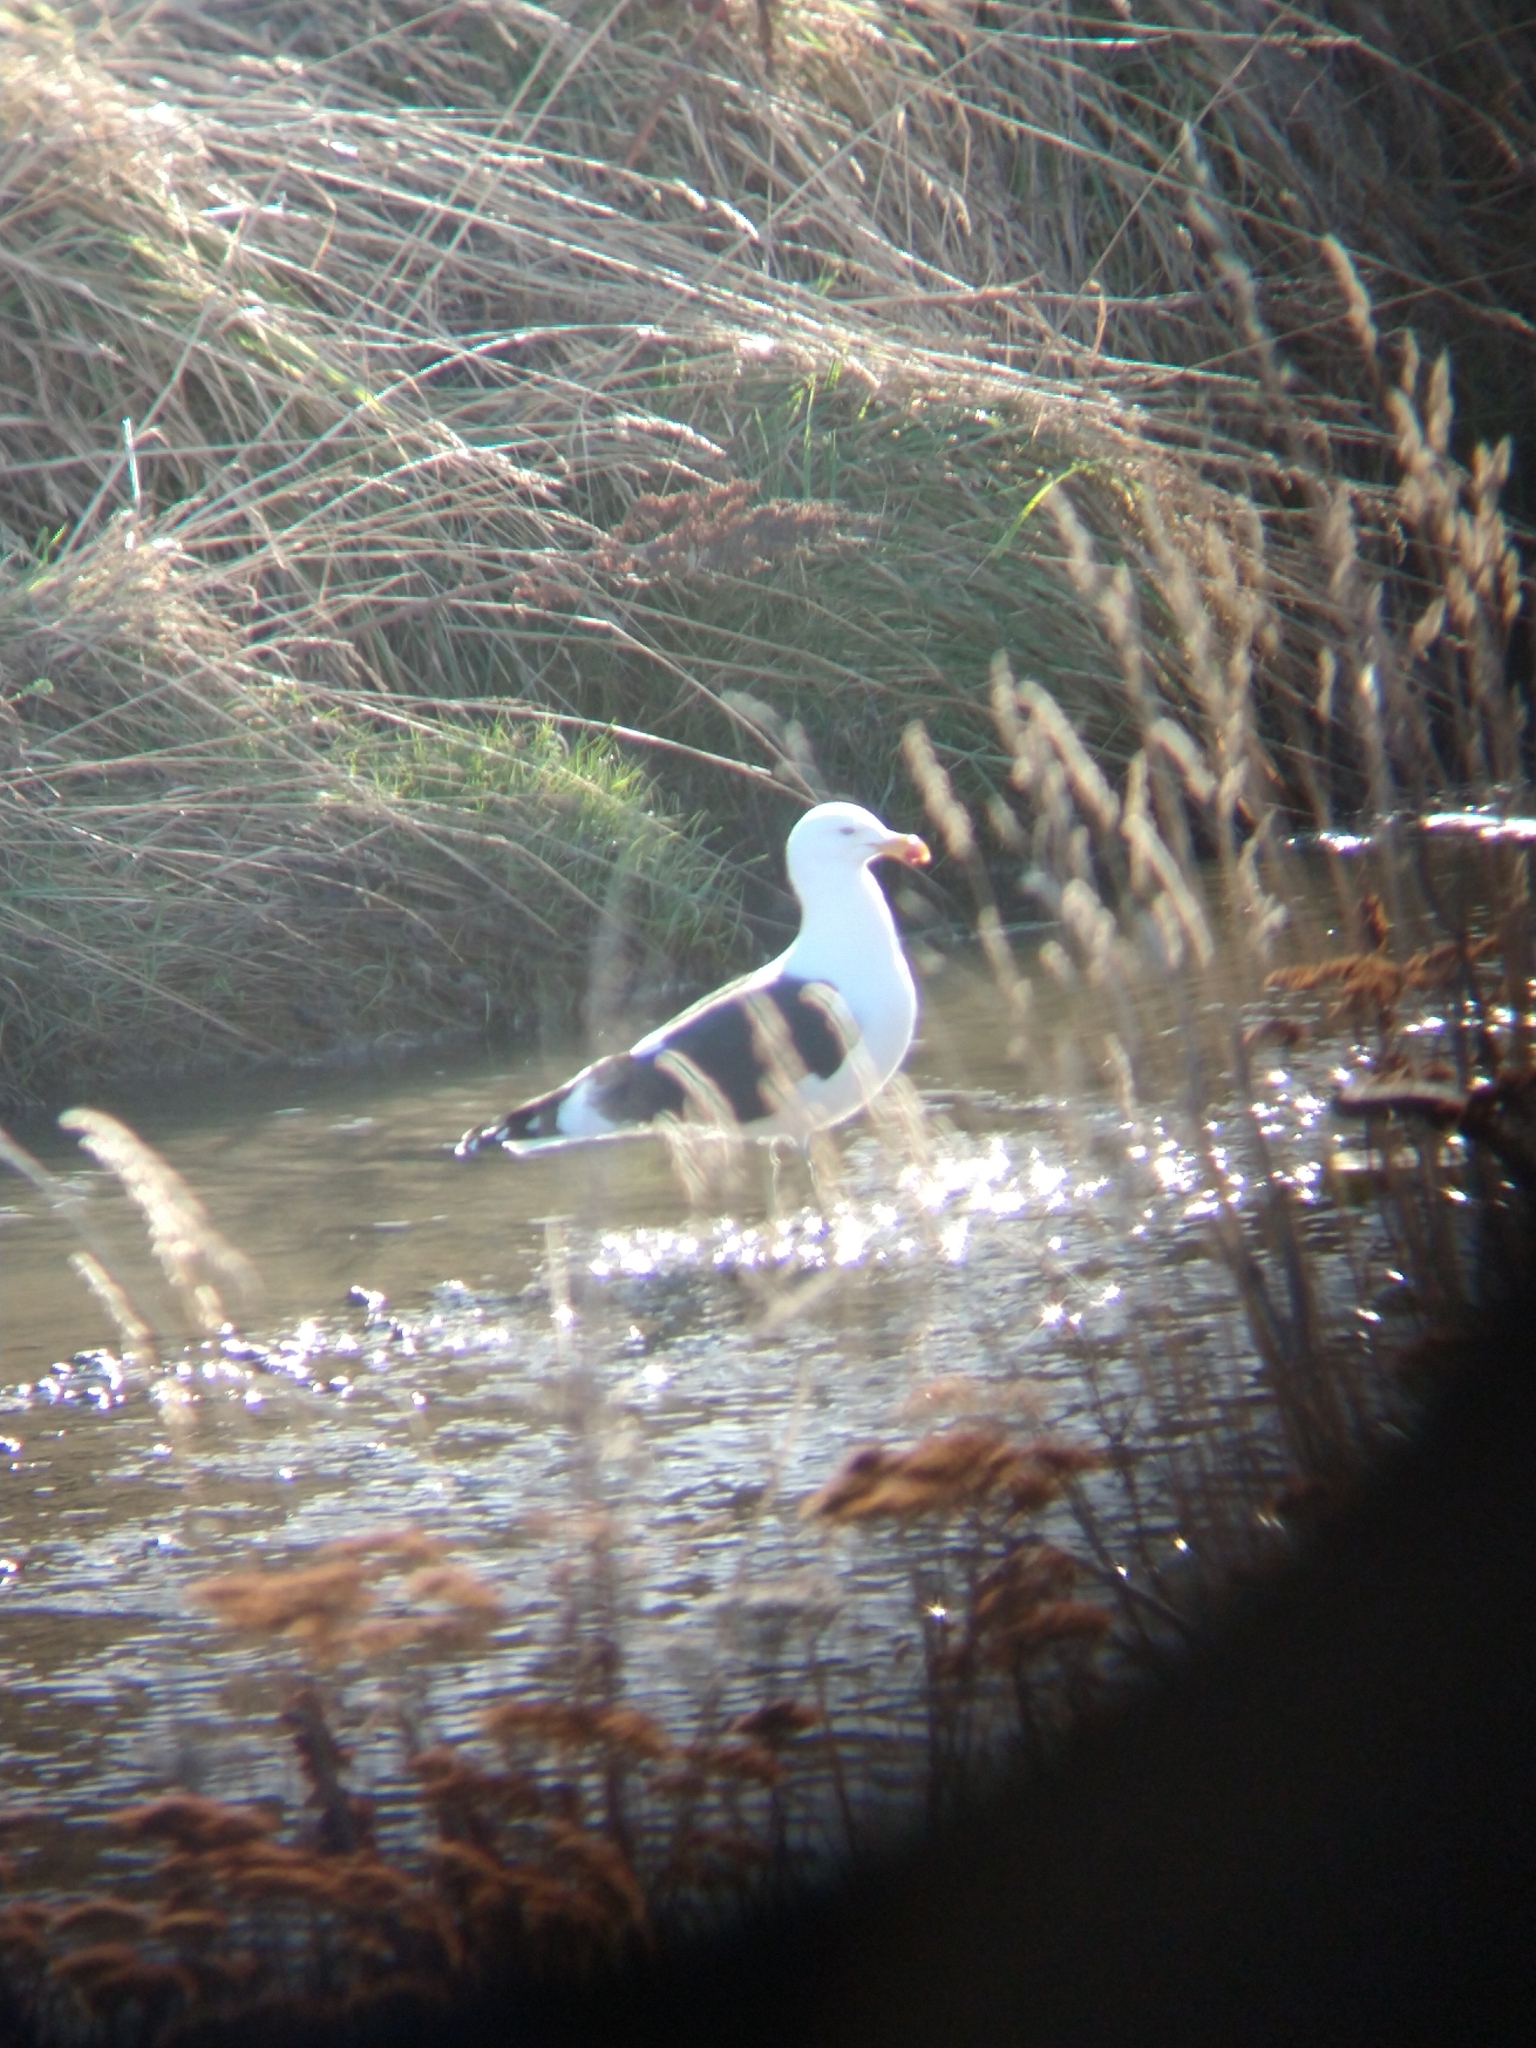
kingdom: Animalia
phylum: Chordata
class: Aves
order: Charadriiformes
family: Laridae
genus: Larus
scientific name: Larus dominicanus
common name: Kelp gull
